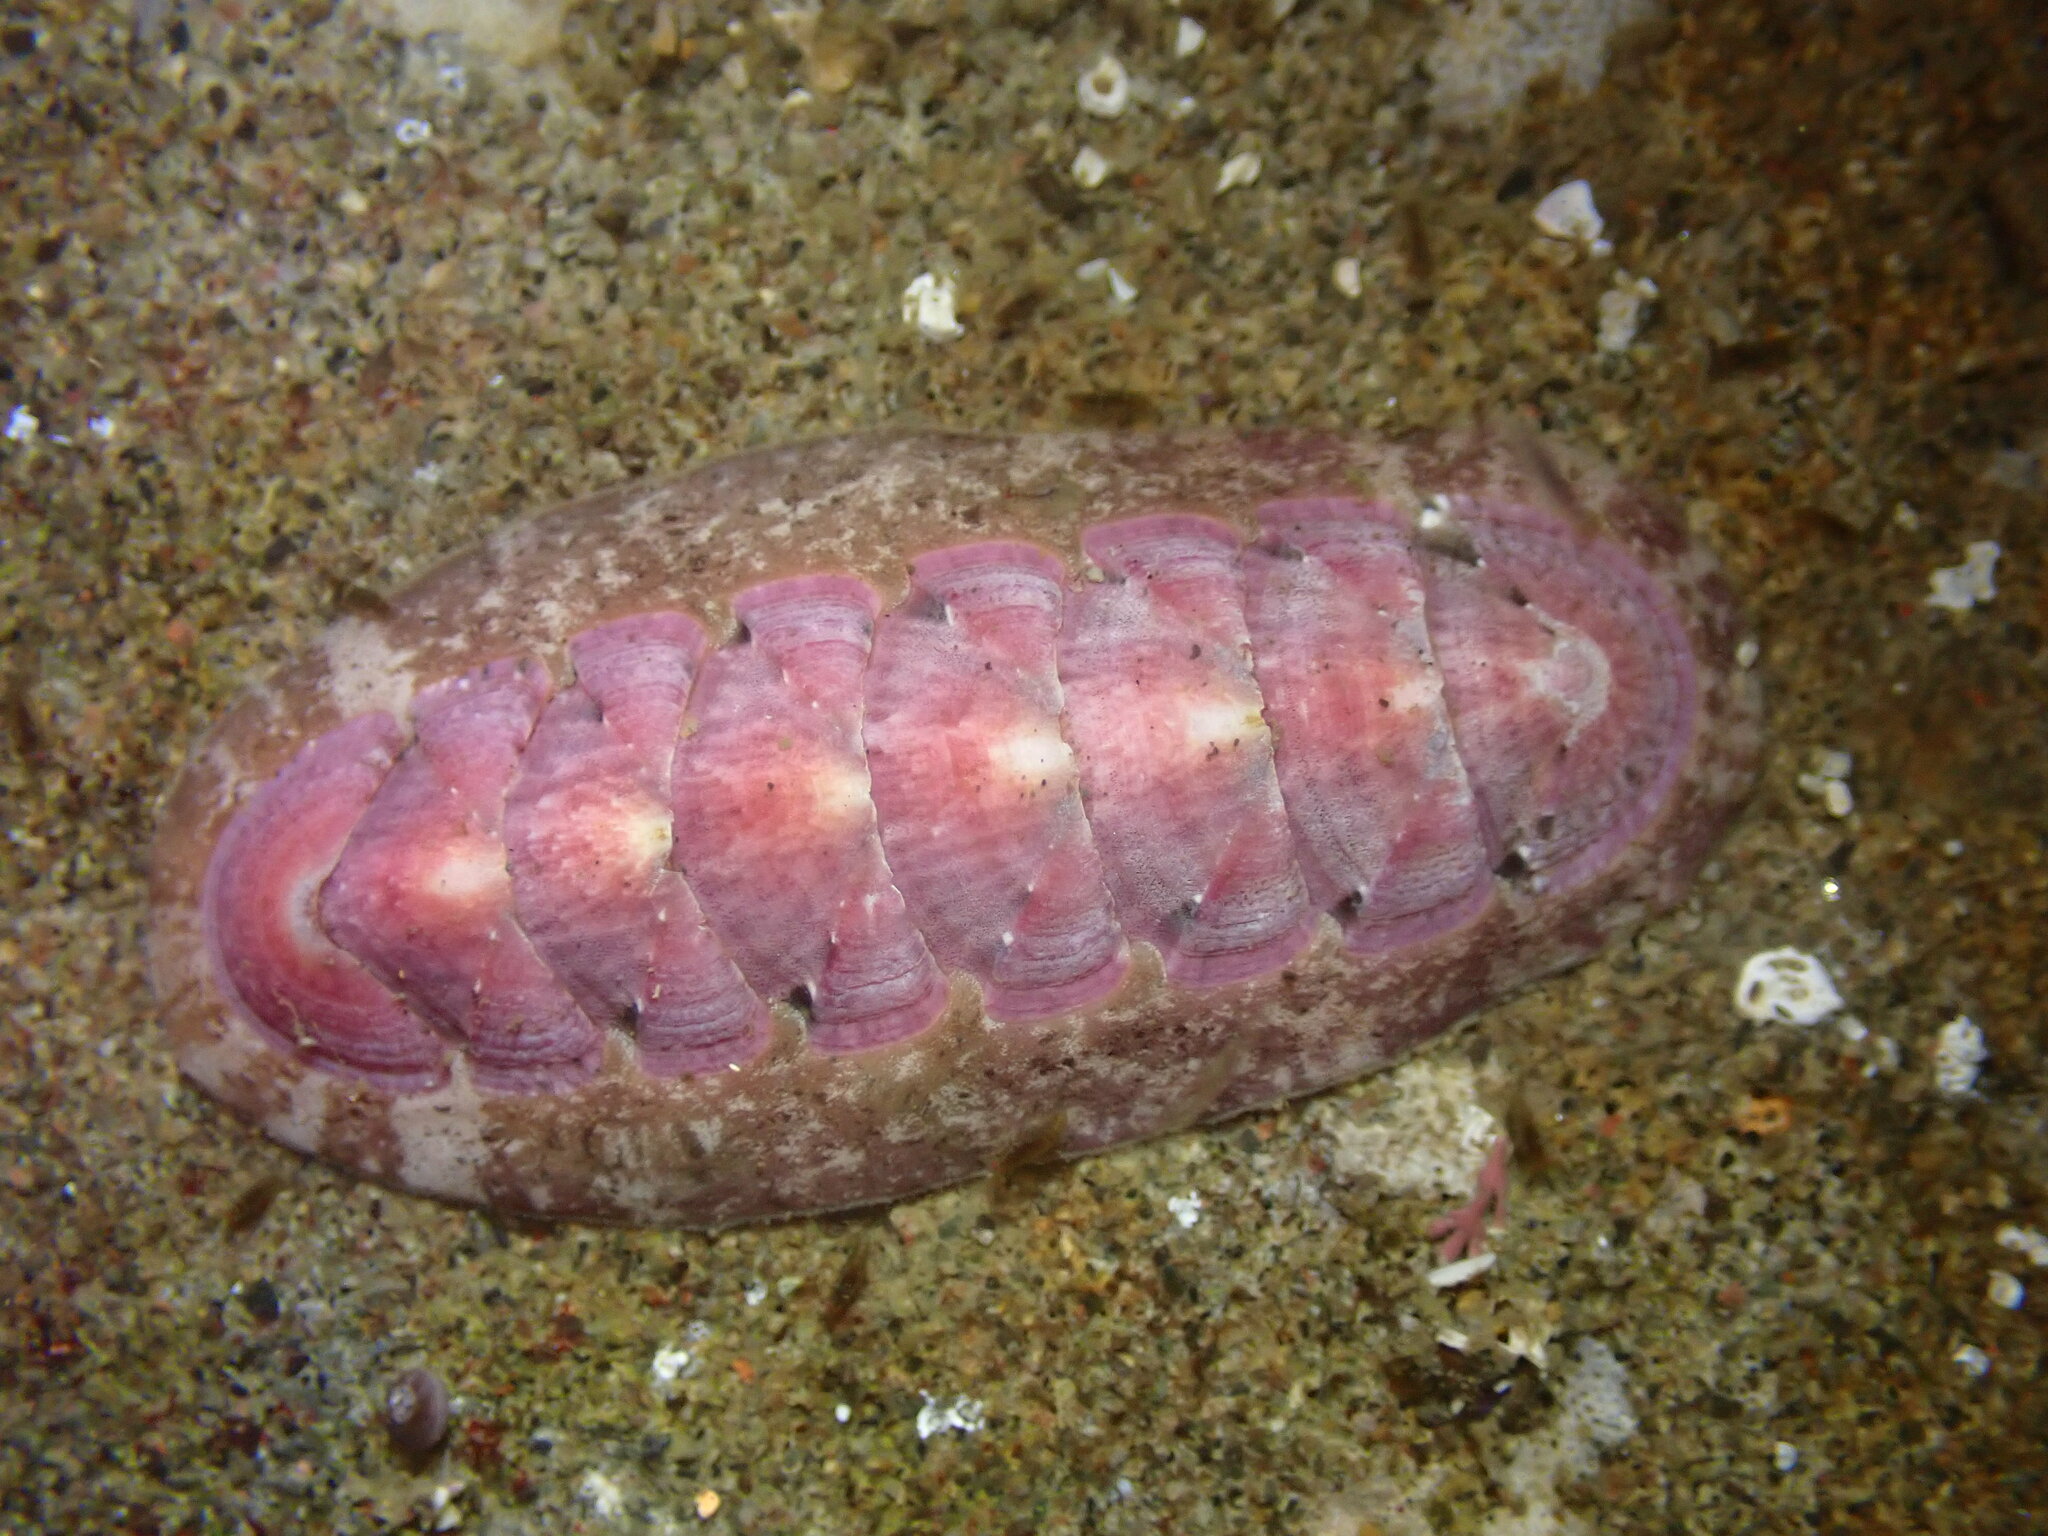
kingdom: Animalia
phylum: Mollusca
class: Polyplacophora
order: Chitonida
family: Ischnochitonidae
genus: Stenoplax
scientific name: Stenoplax heathiana
